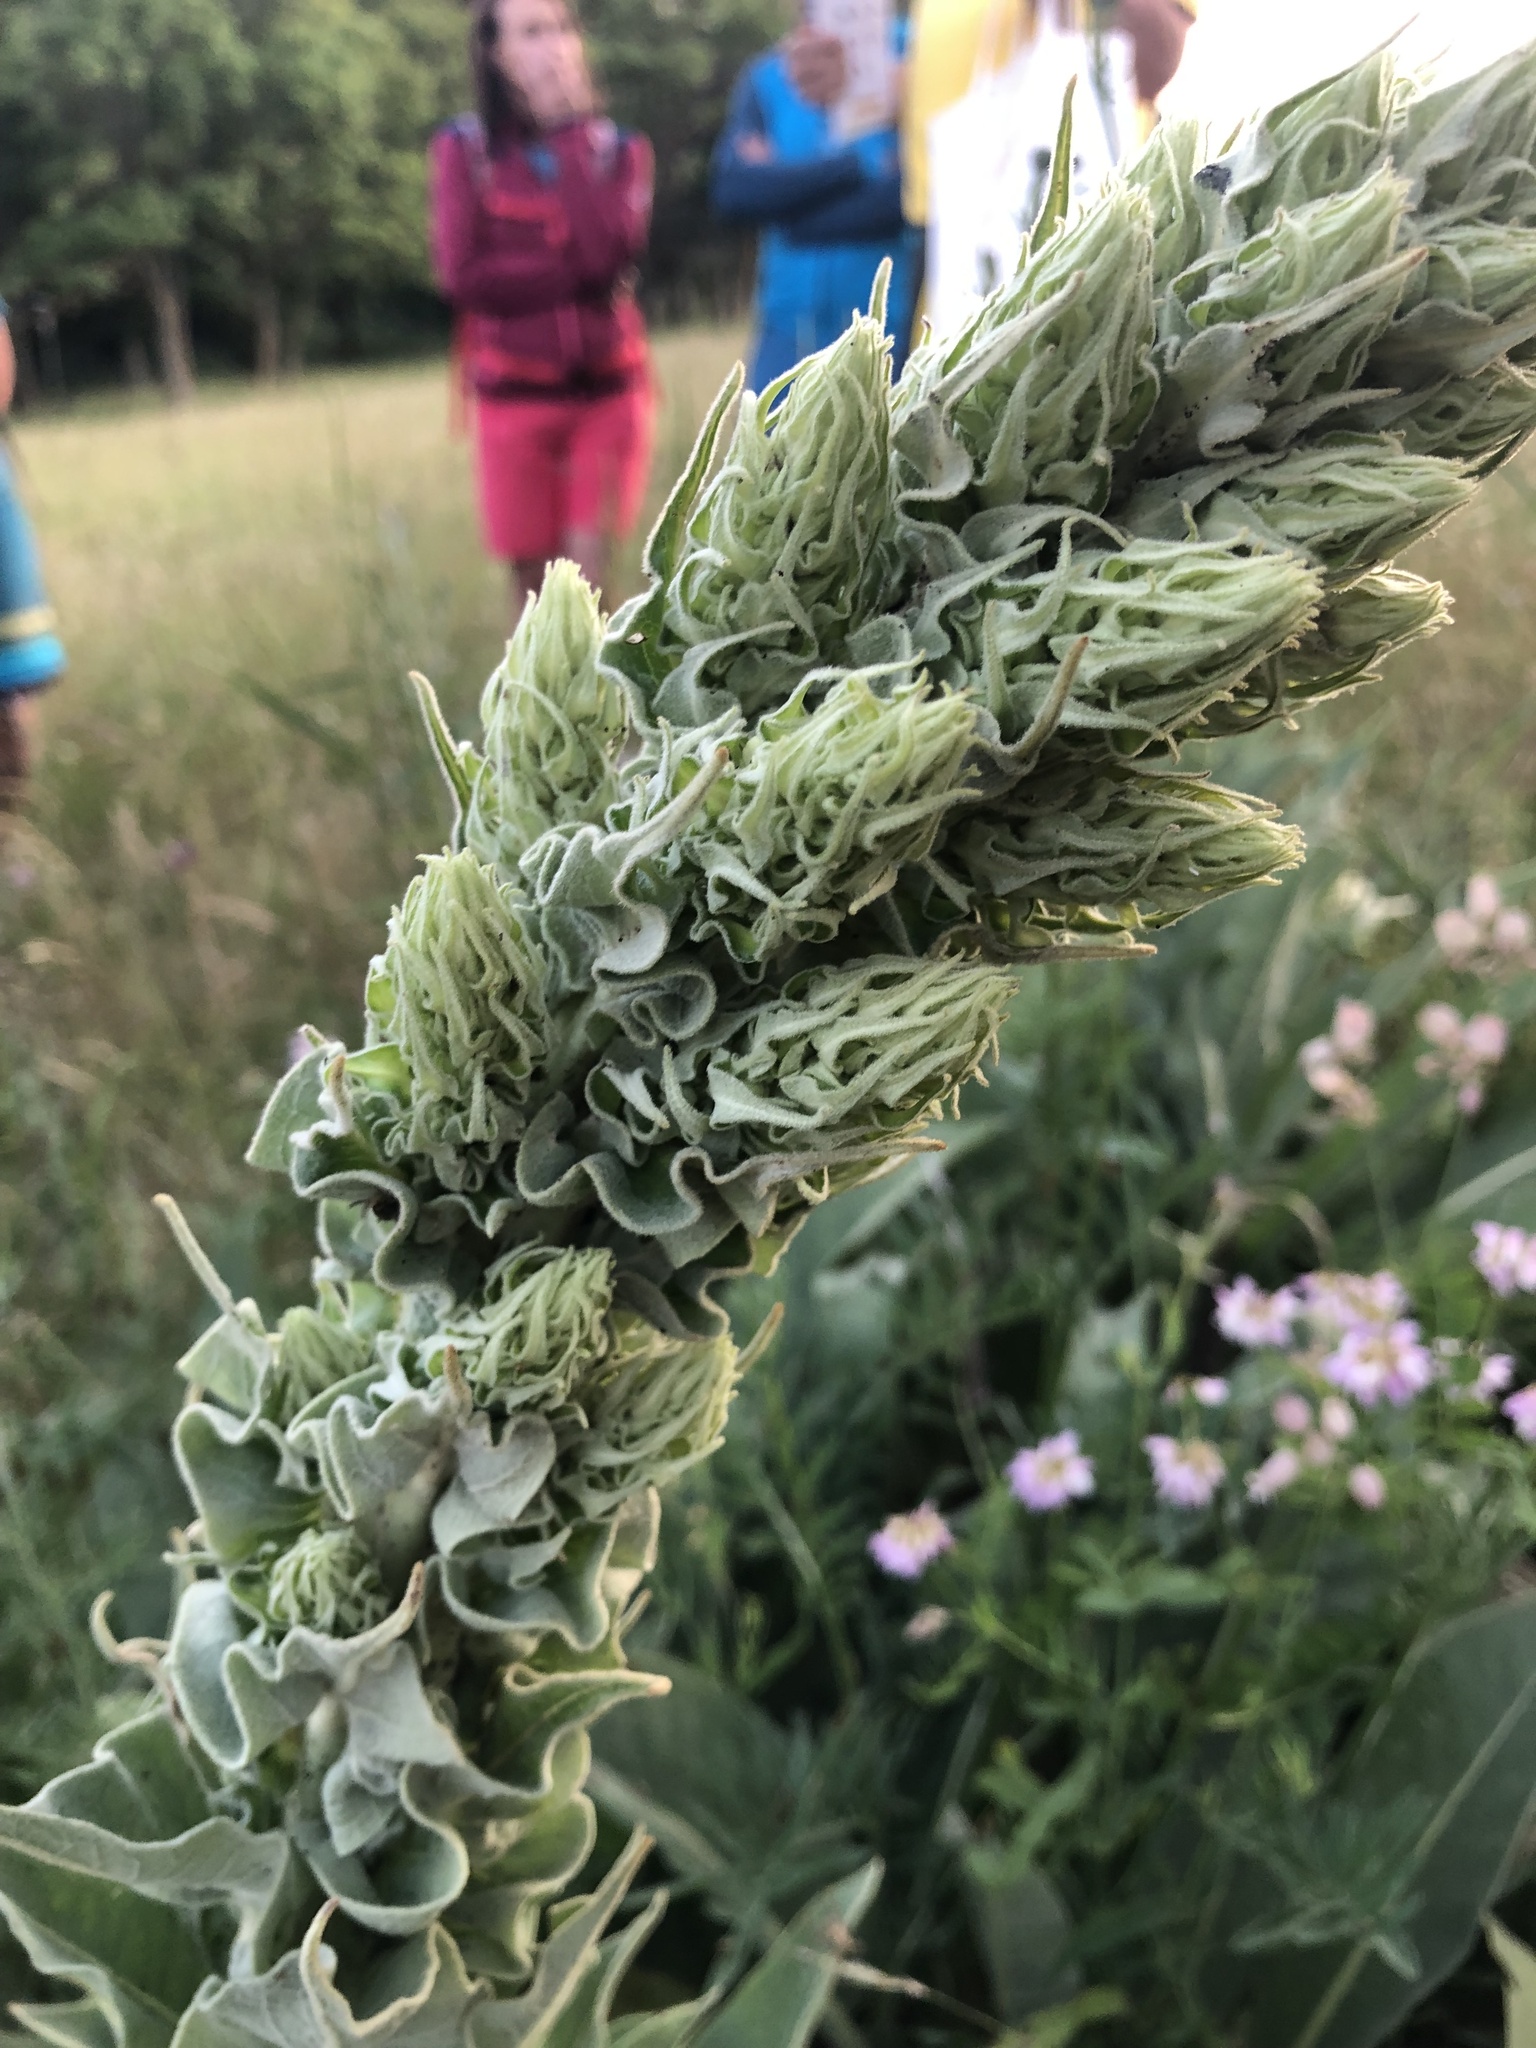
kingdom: Plantae
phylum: Tracheophyta
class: Magnoliopsida
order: Lamiales
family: Scrophulariaceae
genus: Verbascum
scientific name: Verbascum speciosum
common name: Hungarian mullein
